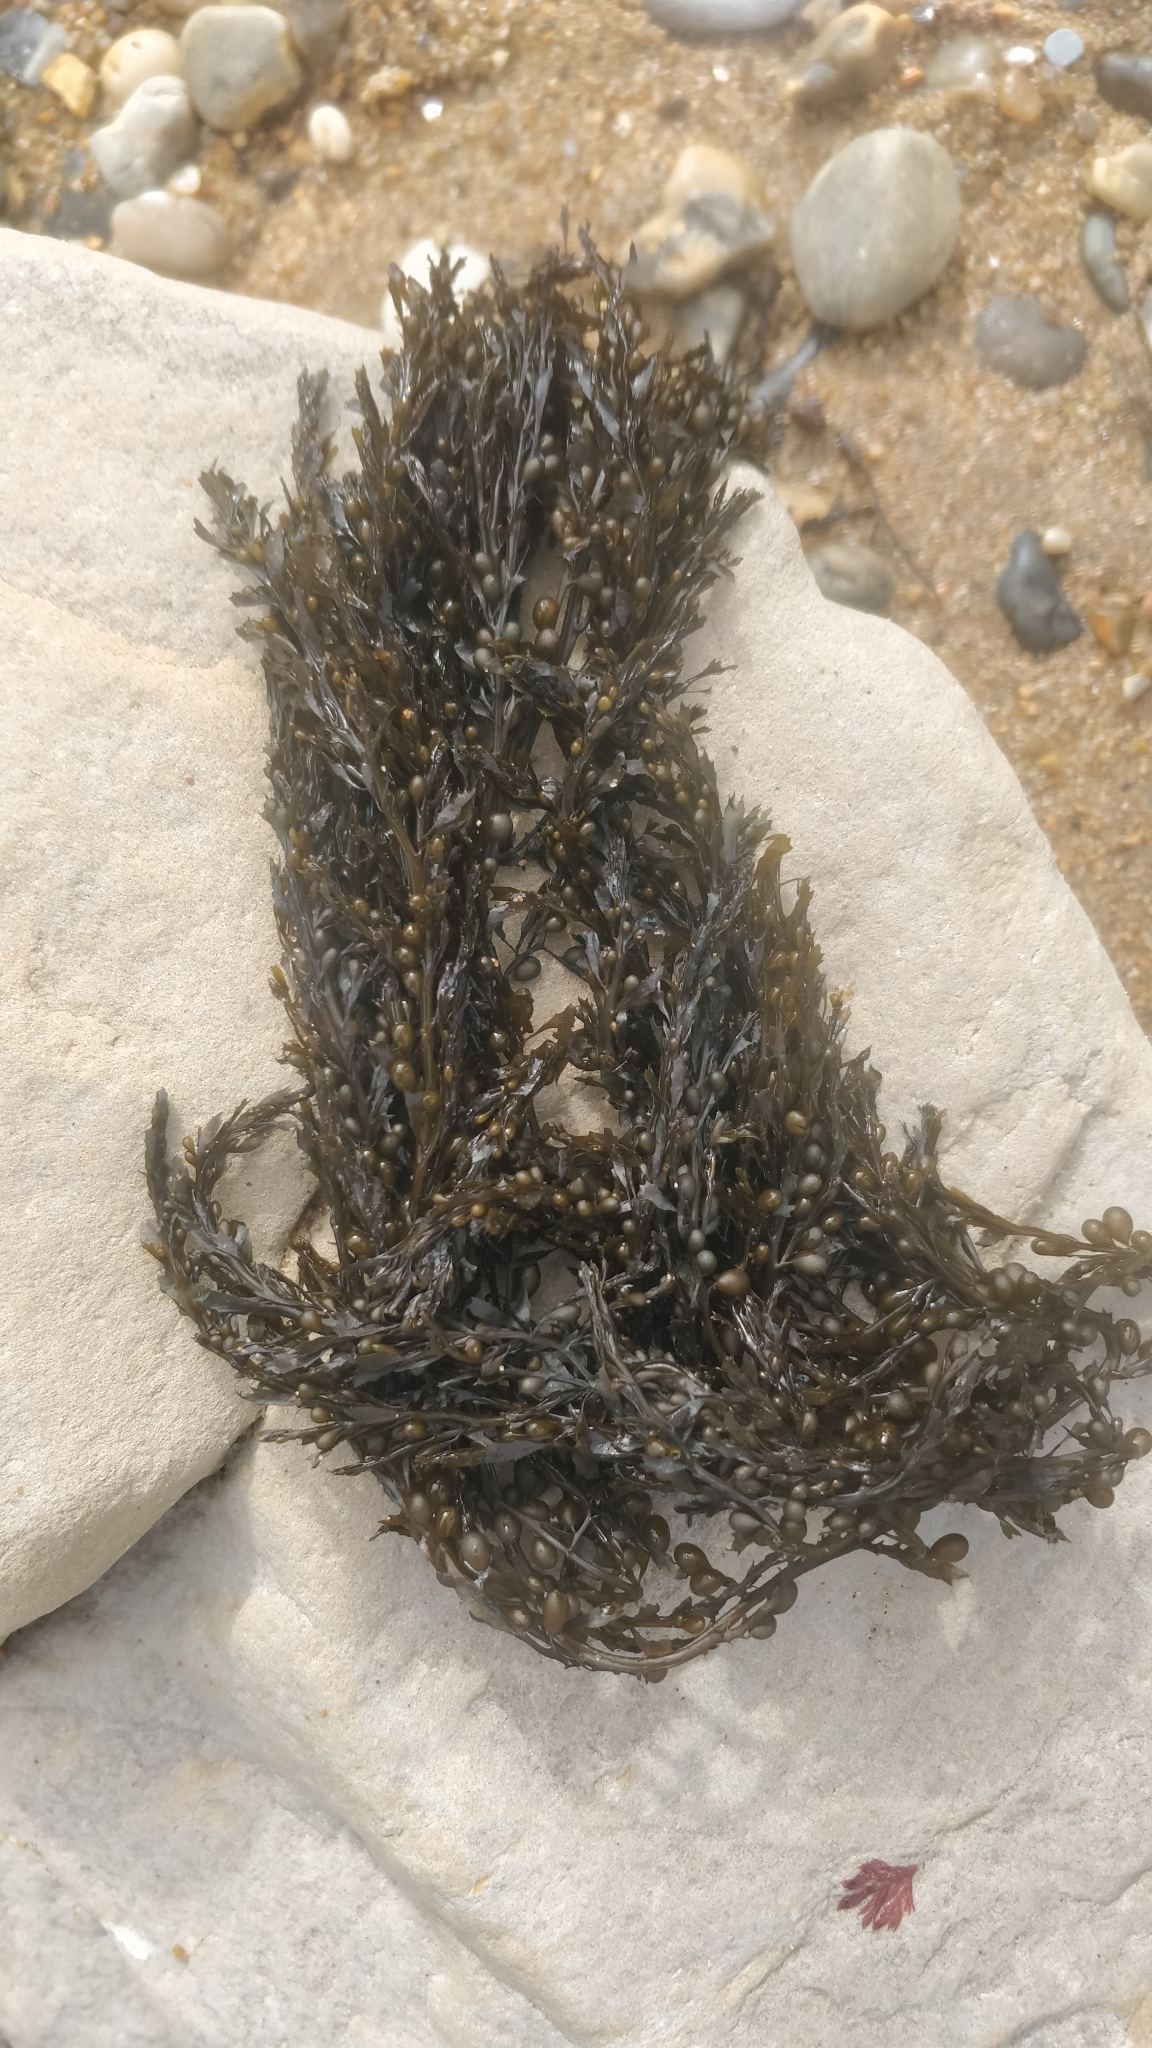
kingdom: Chromista
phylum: Ochrophyta
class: Phaeophyceae
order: Fucales
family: Sargassaceae
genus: Sargassum
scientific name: Sargassum muticum
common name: Japweed
